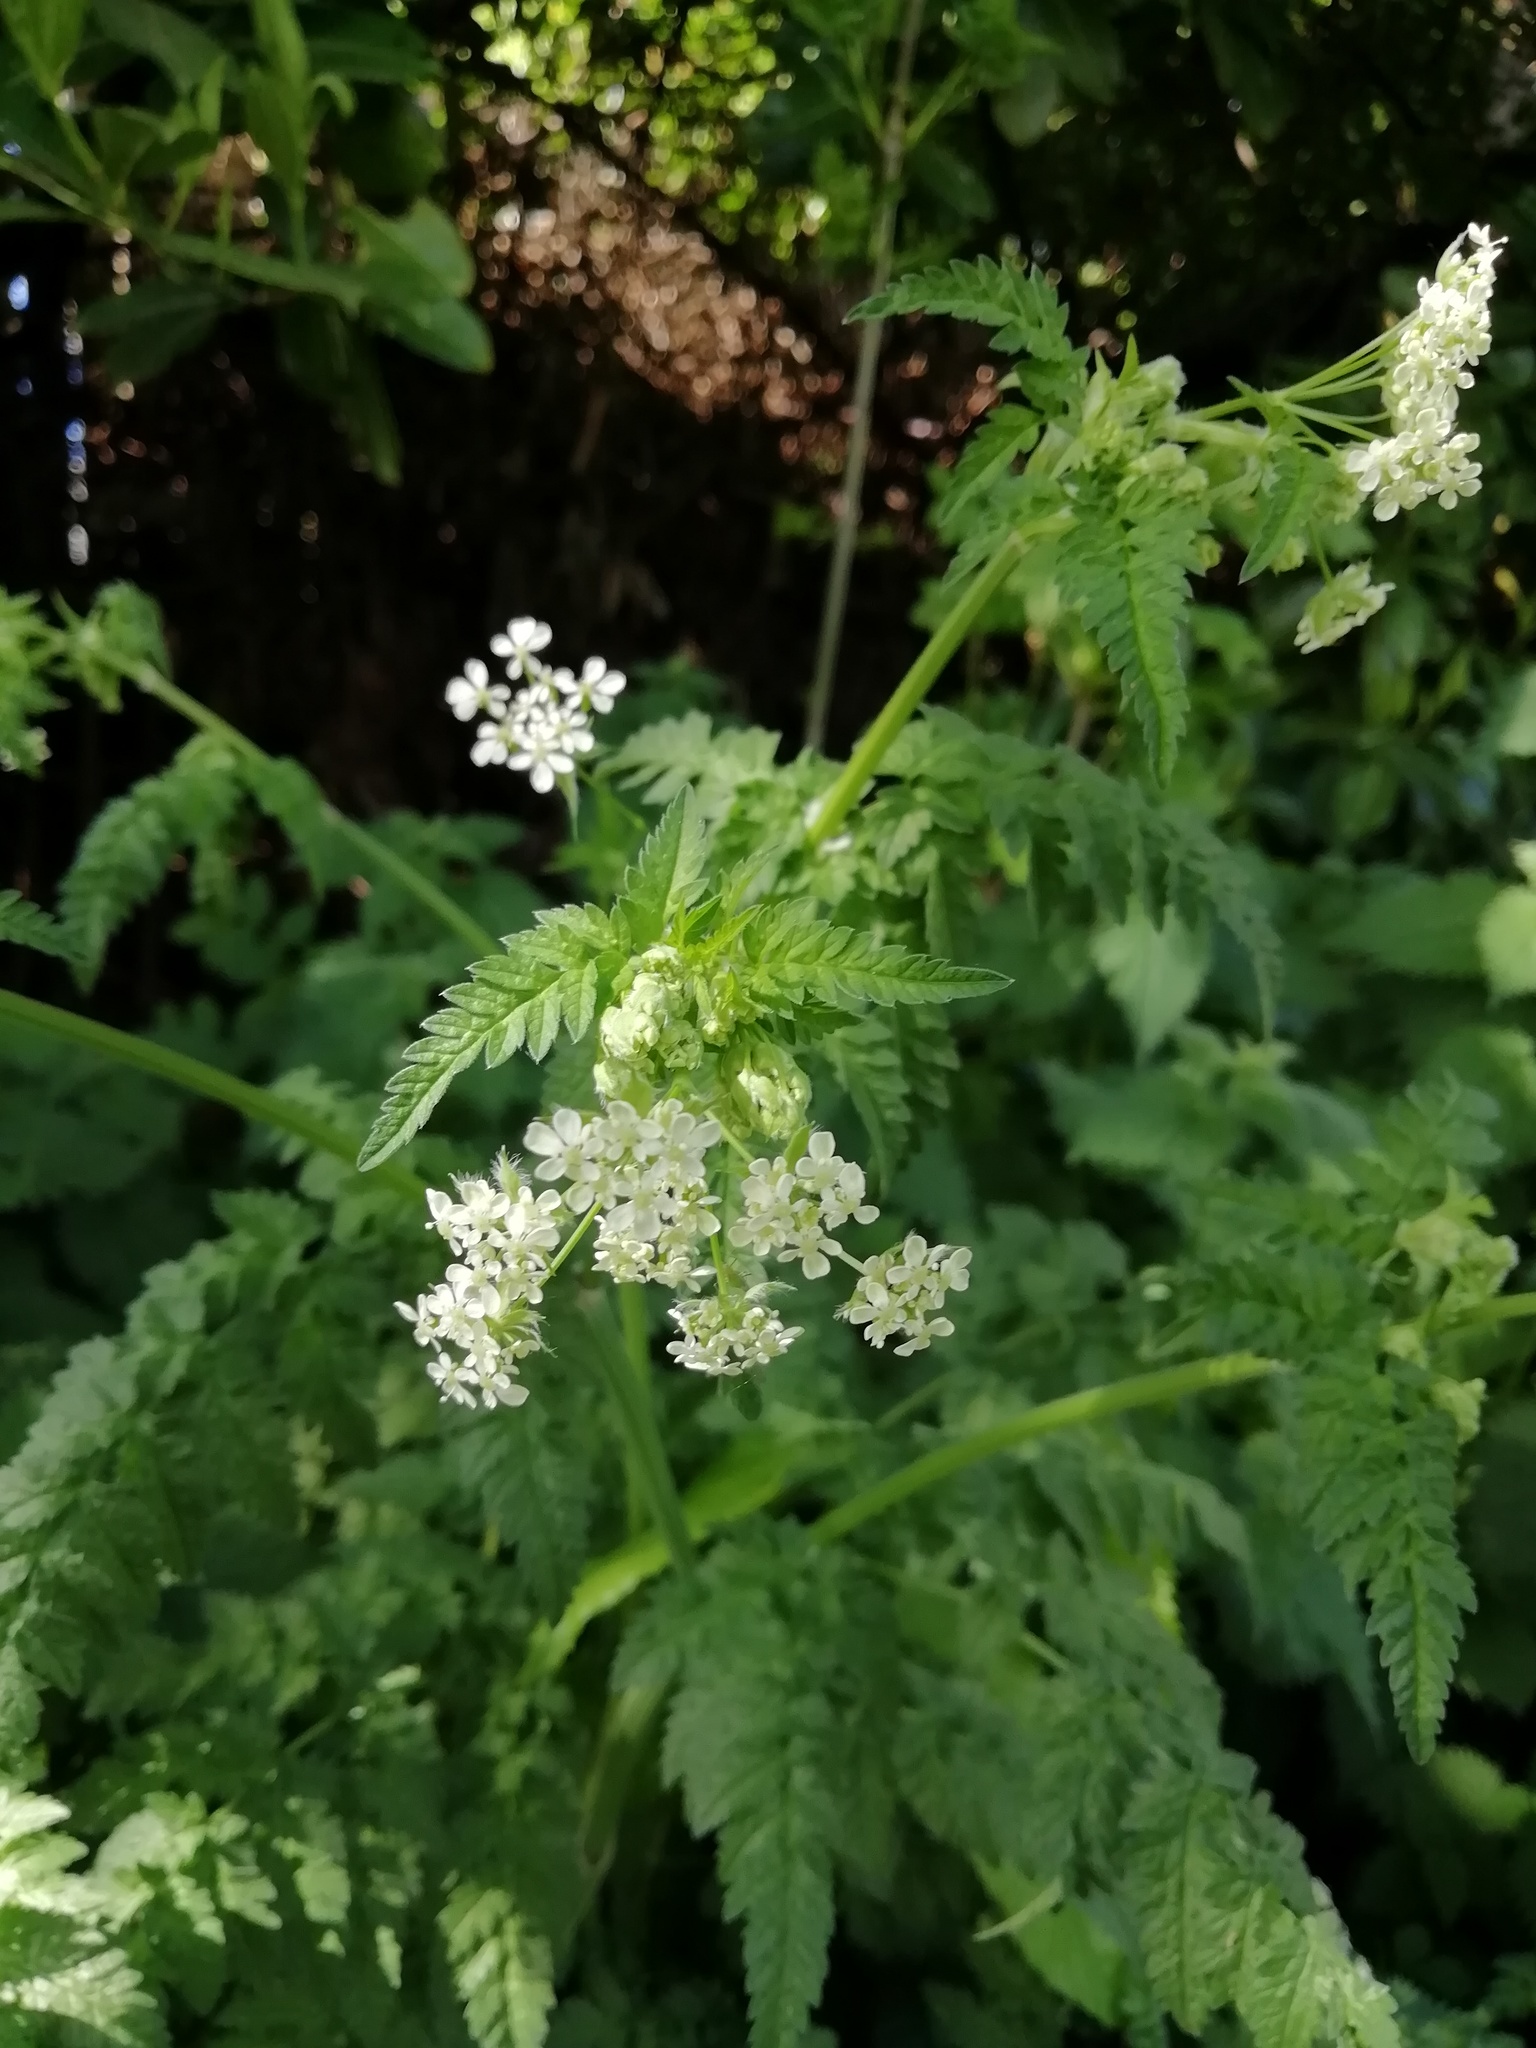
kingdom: Plantae
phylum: Tracheophyta
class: Magnoliopsida
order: Apiales
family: Apiaceae
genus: Anthriscus
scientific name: Anthriscus sylvestris
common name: Cow parsley
